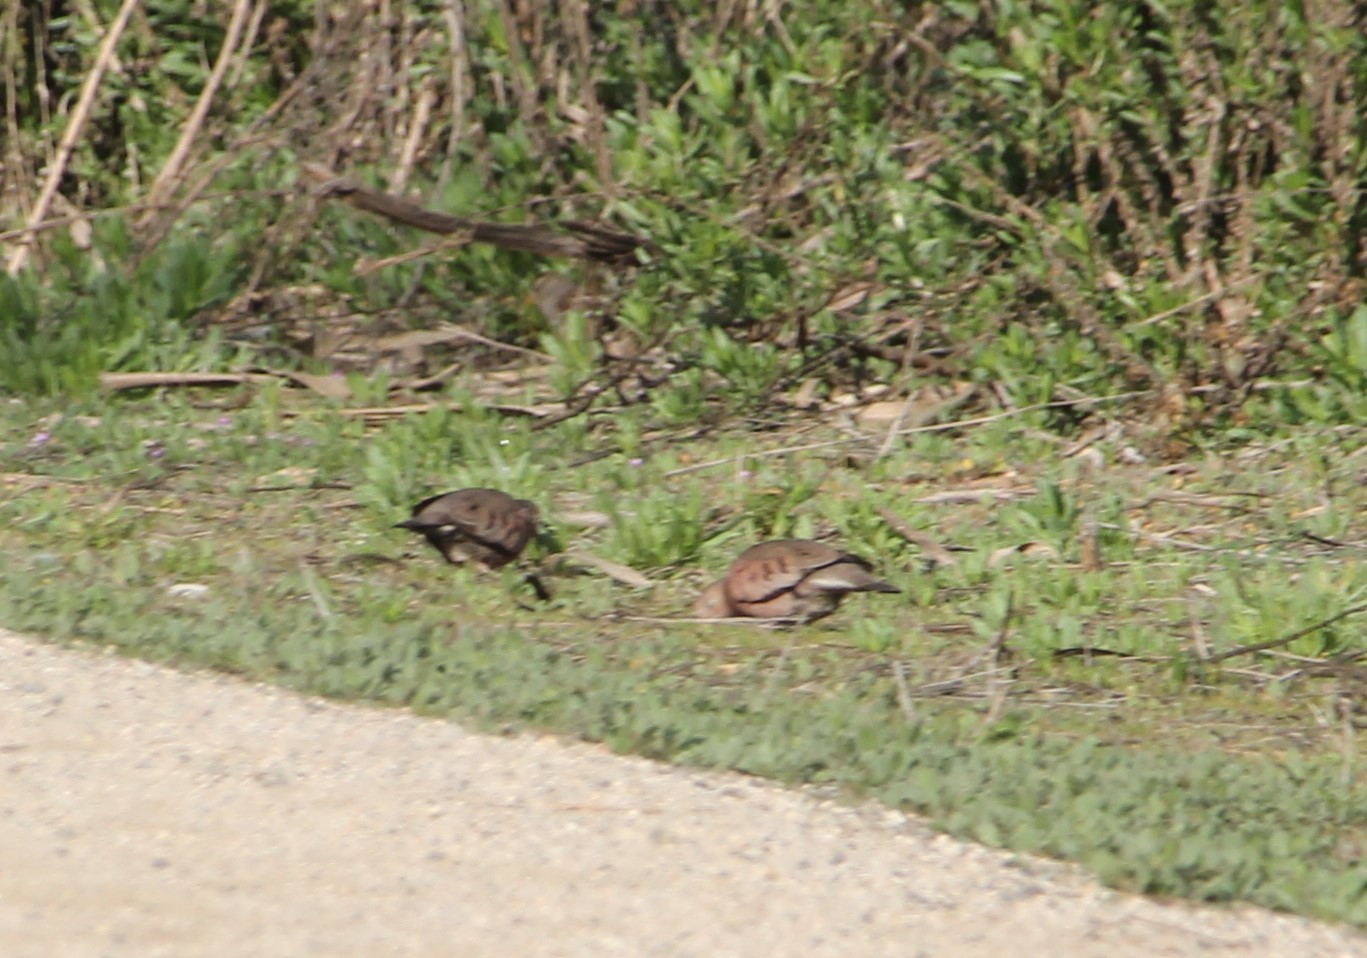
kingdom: Animalia
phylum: Chordata
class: Aves
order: Columbiformes
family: Columbidae
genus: Columbina
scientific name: Columbina passerina
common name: Common ground-dove
